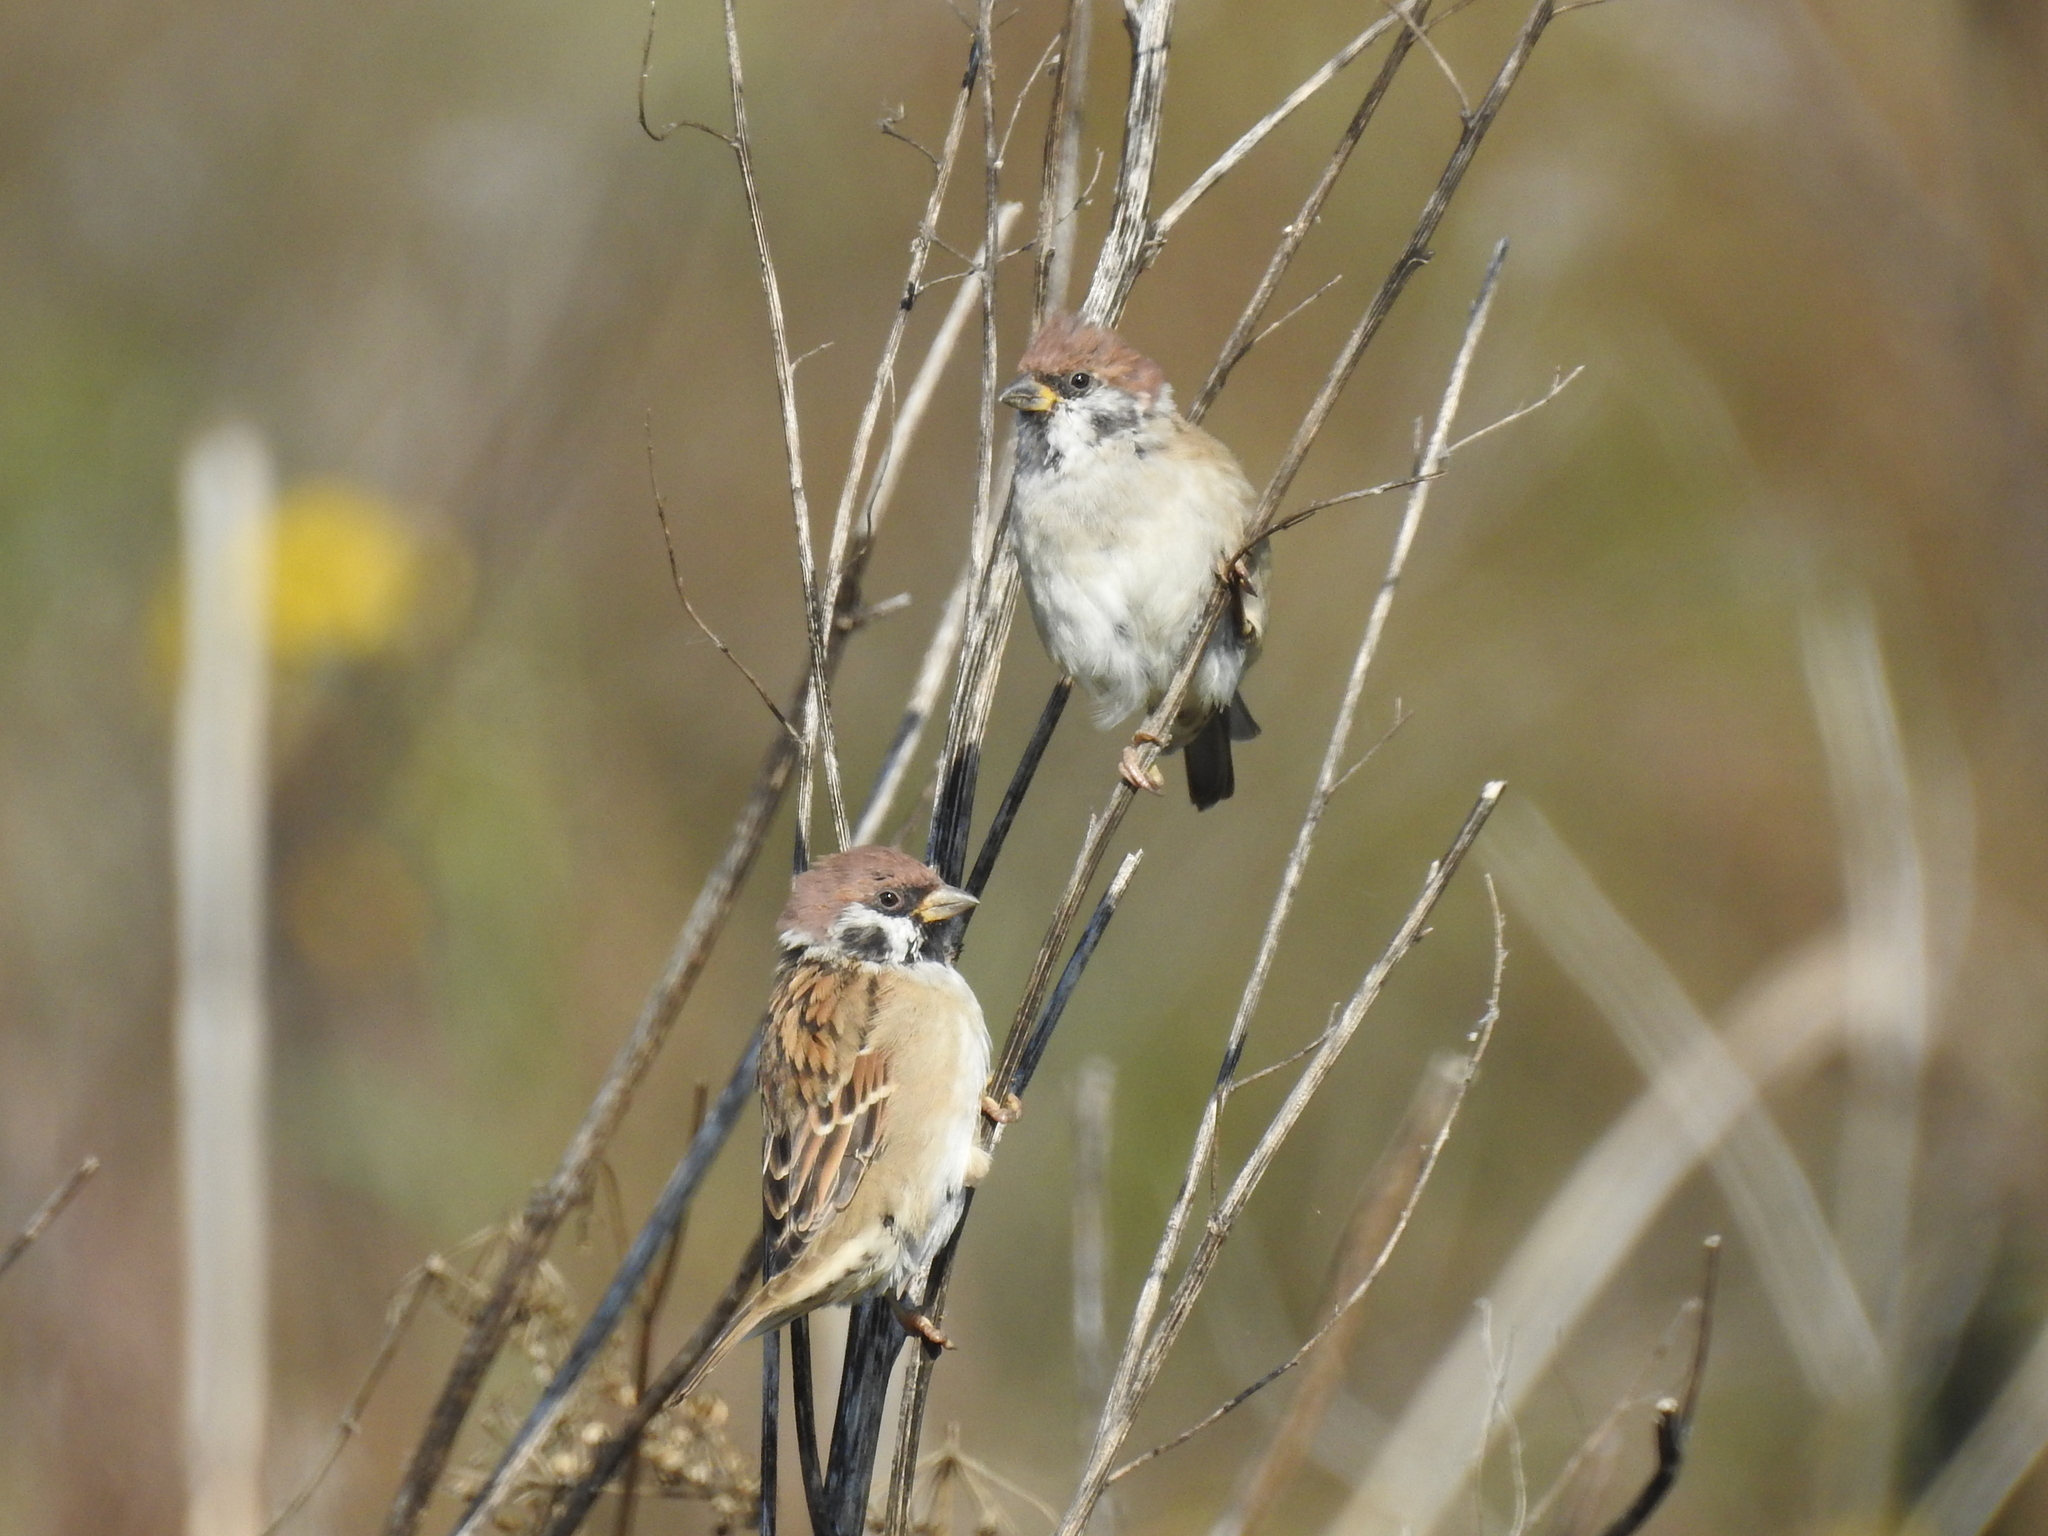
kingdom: Animalia
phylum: Chordata
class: Aves
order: Passeriformes
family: Passeridae
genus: Passer
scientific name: Passer montanus
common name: Eurasian tree sparrow
